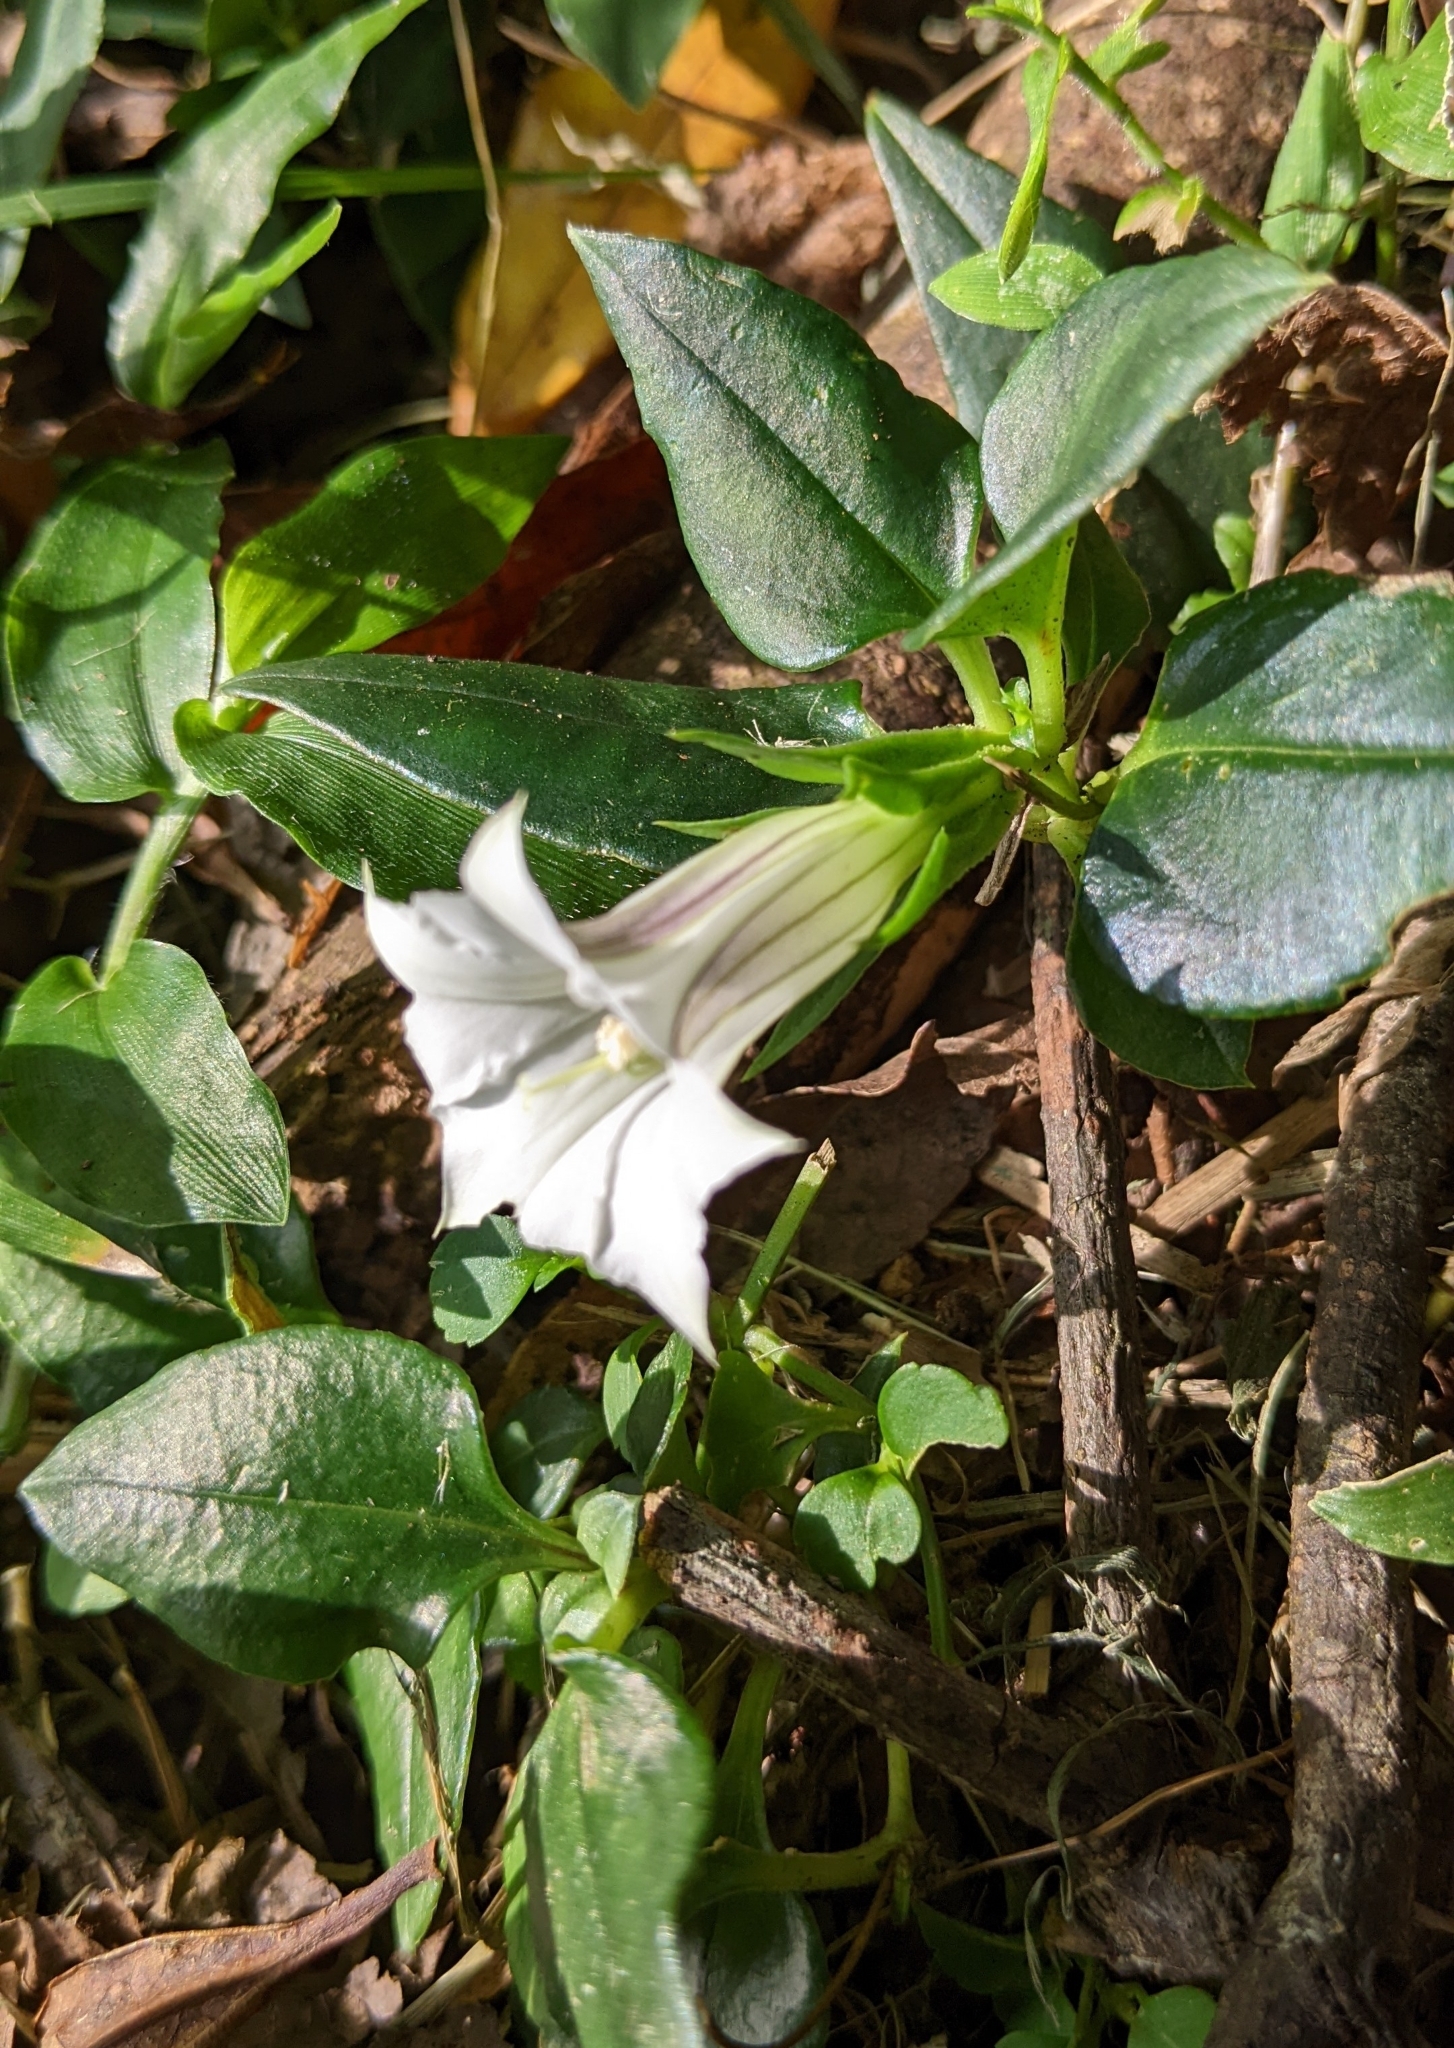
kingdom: Plantae
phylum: Tracheophyta
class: Magnoliopsida
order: Gentianales
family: Gentianaceae
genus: Tripterospermum
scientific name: Tripterospermum alutaceifolium
